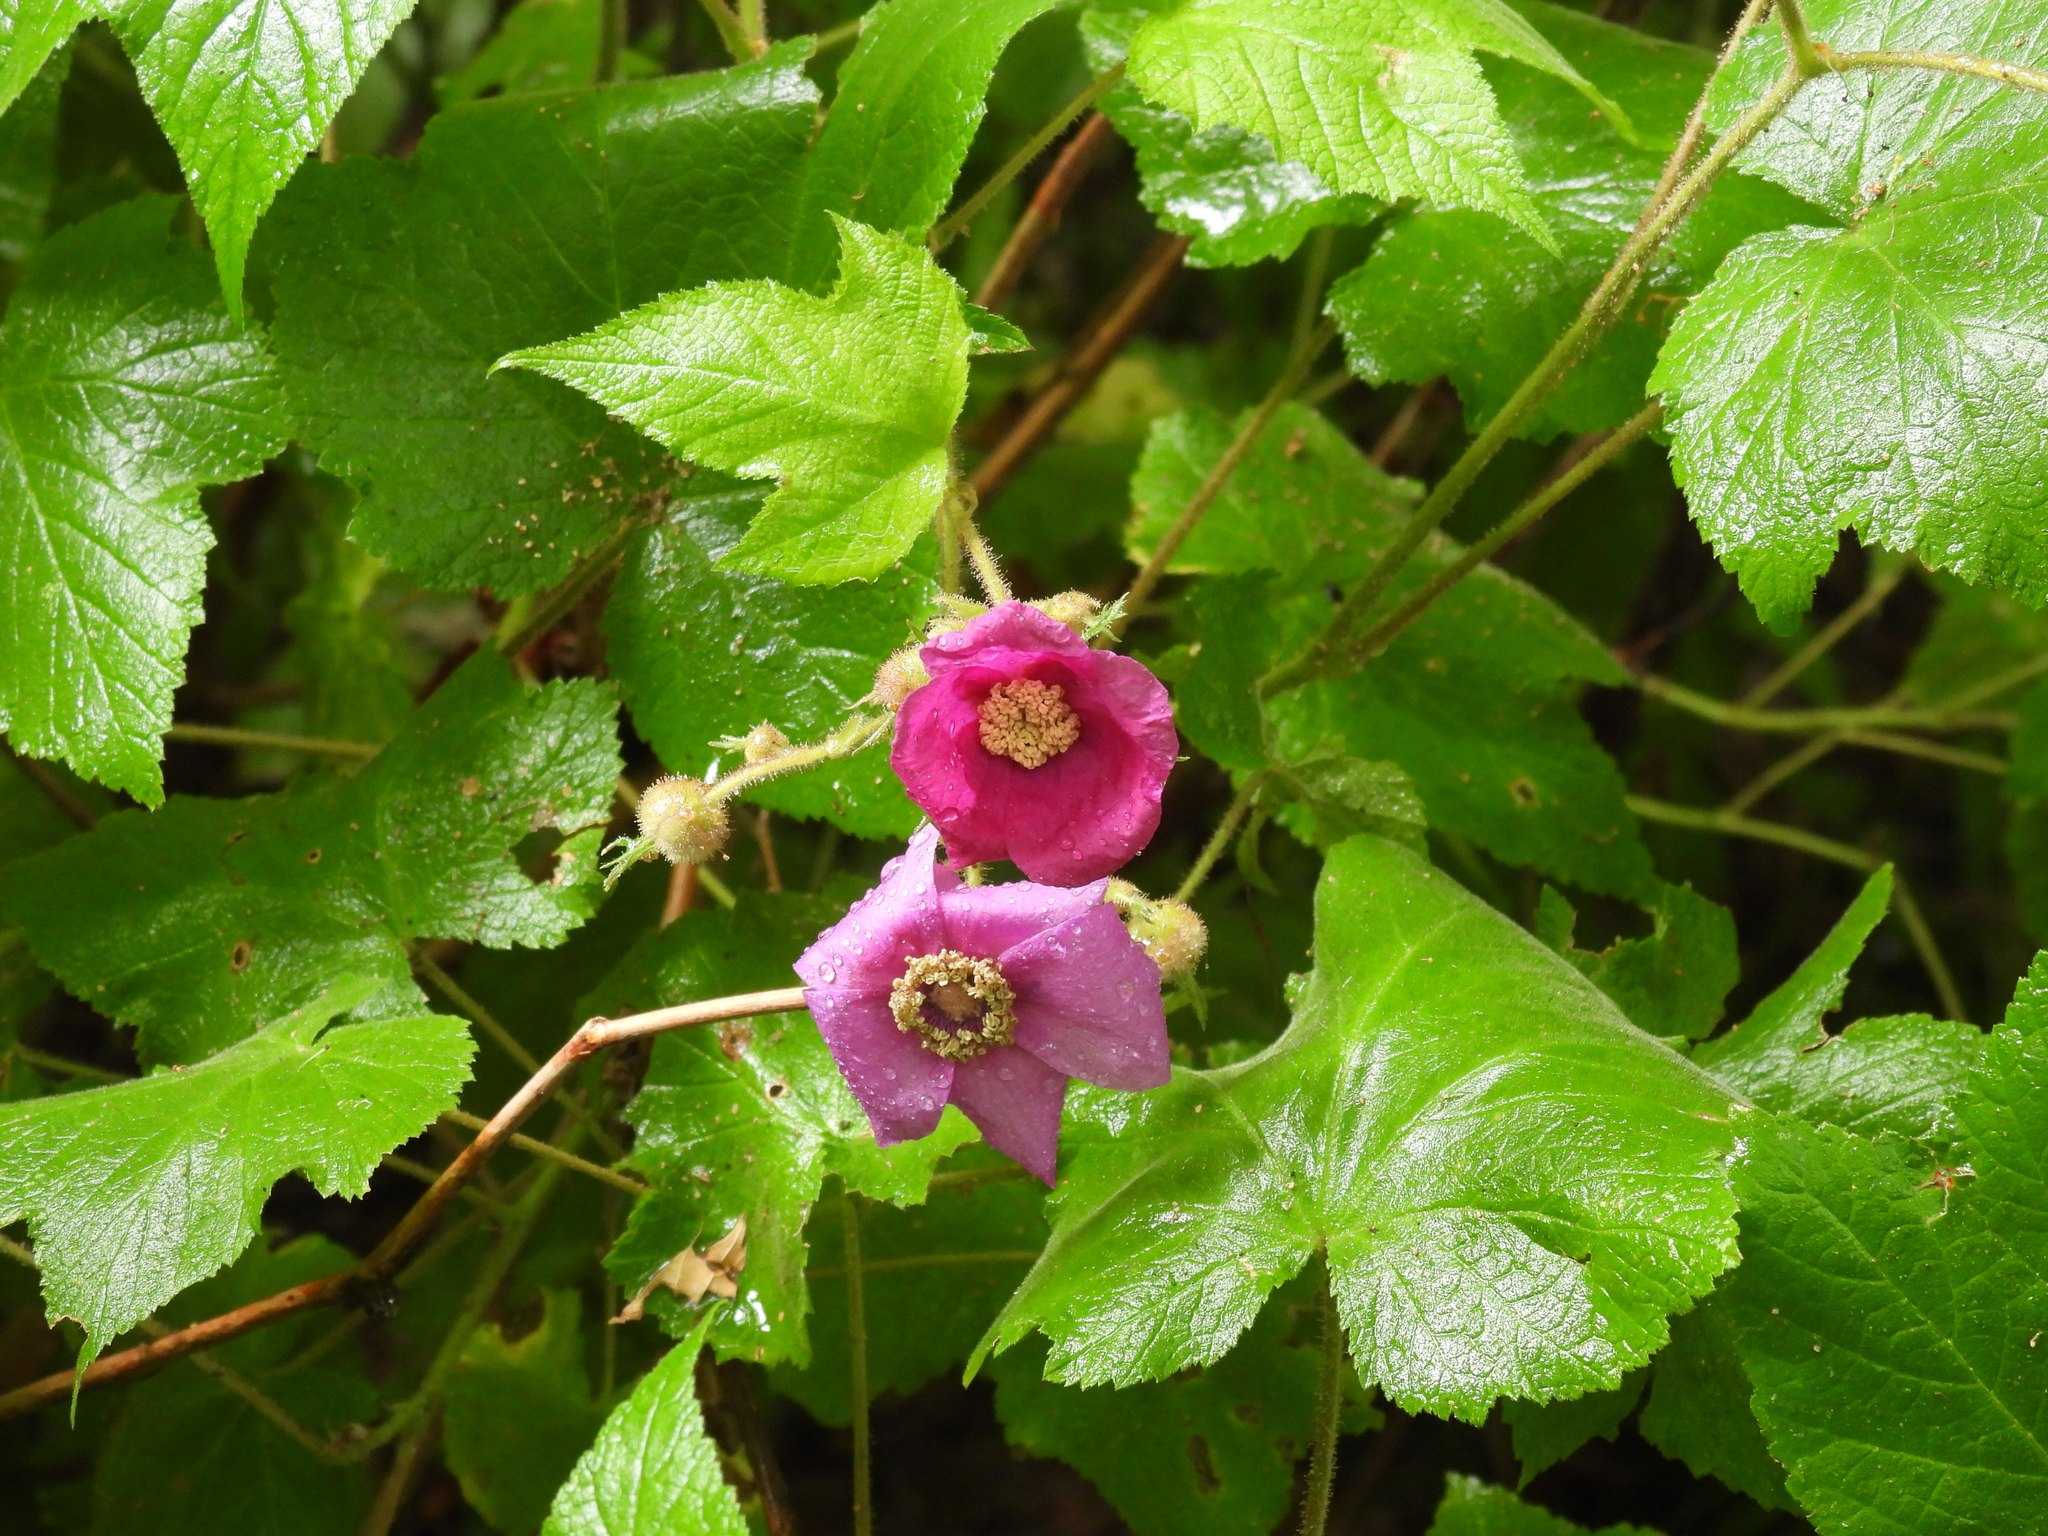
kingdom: Plantae
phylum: Tracheophyta
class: Magnoliopsida
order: Rosales
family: Rosaceae
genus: Rubus
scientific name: Rubus odoratus
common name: Purple-flowered raspberry
